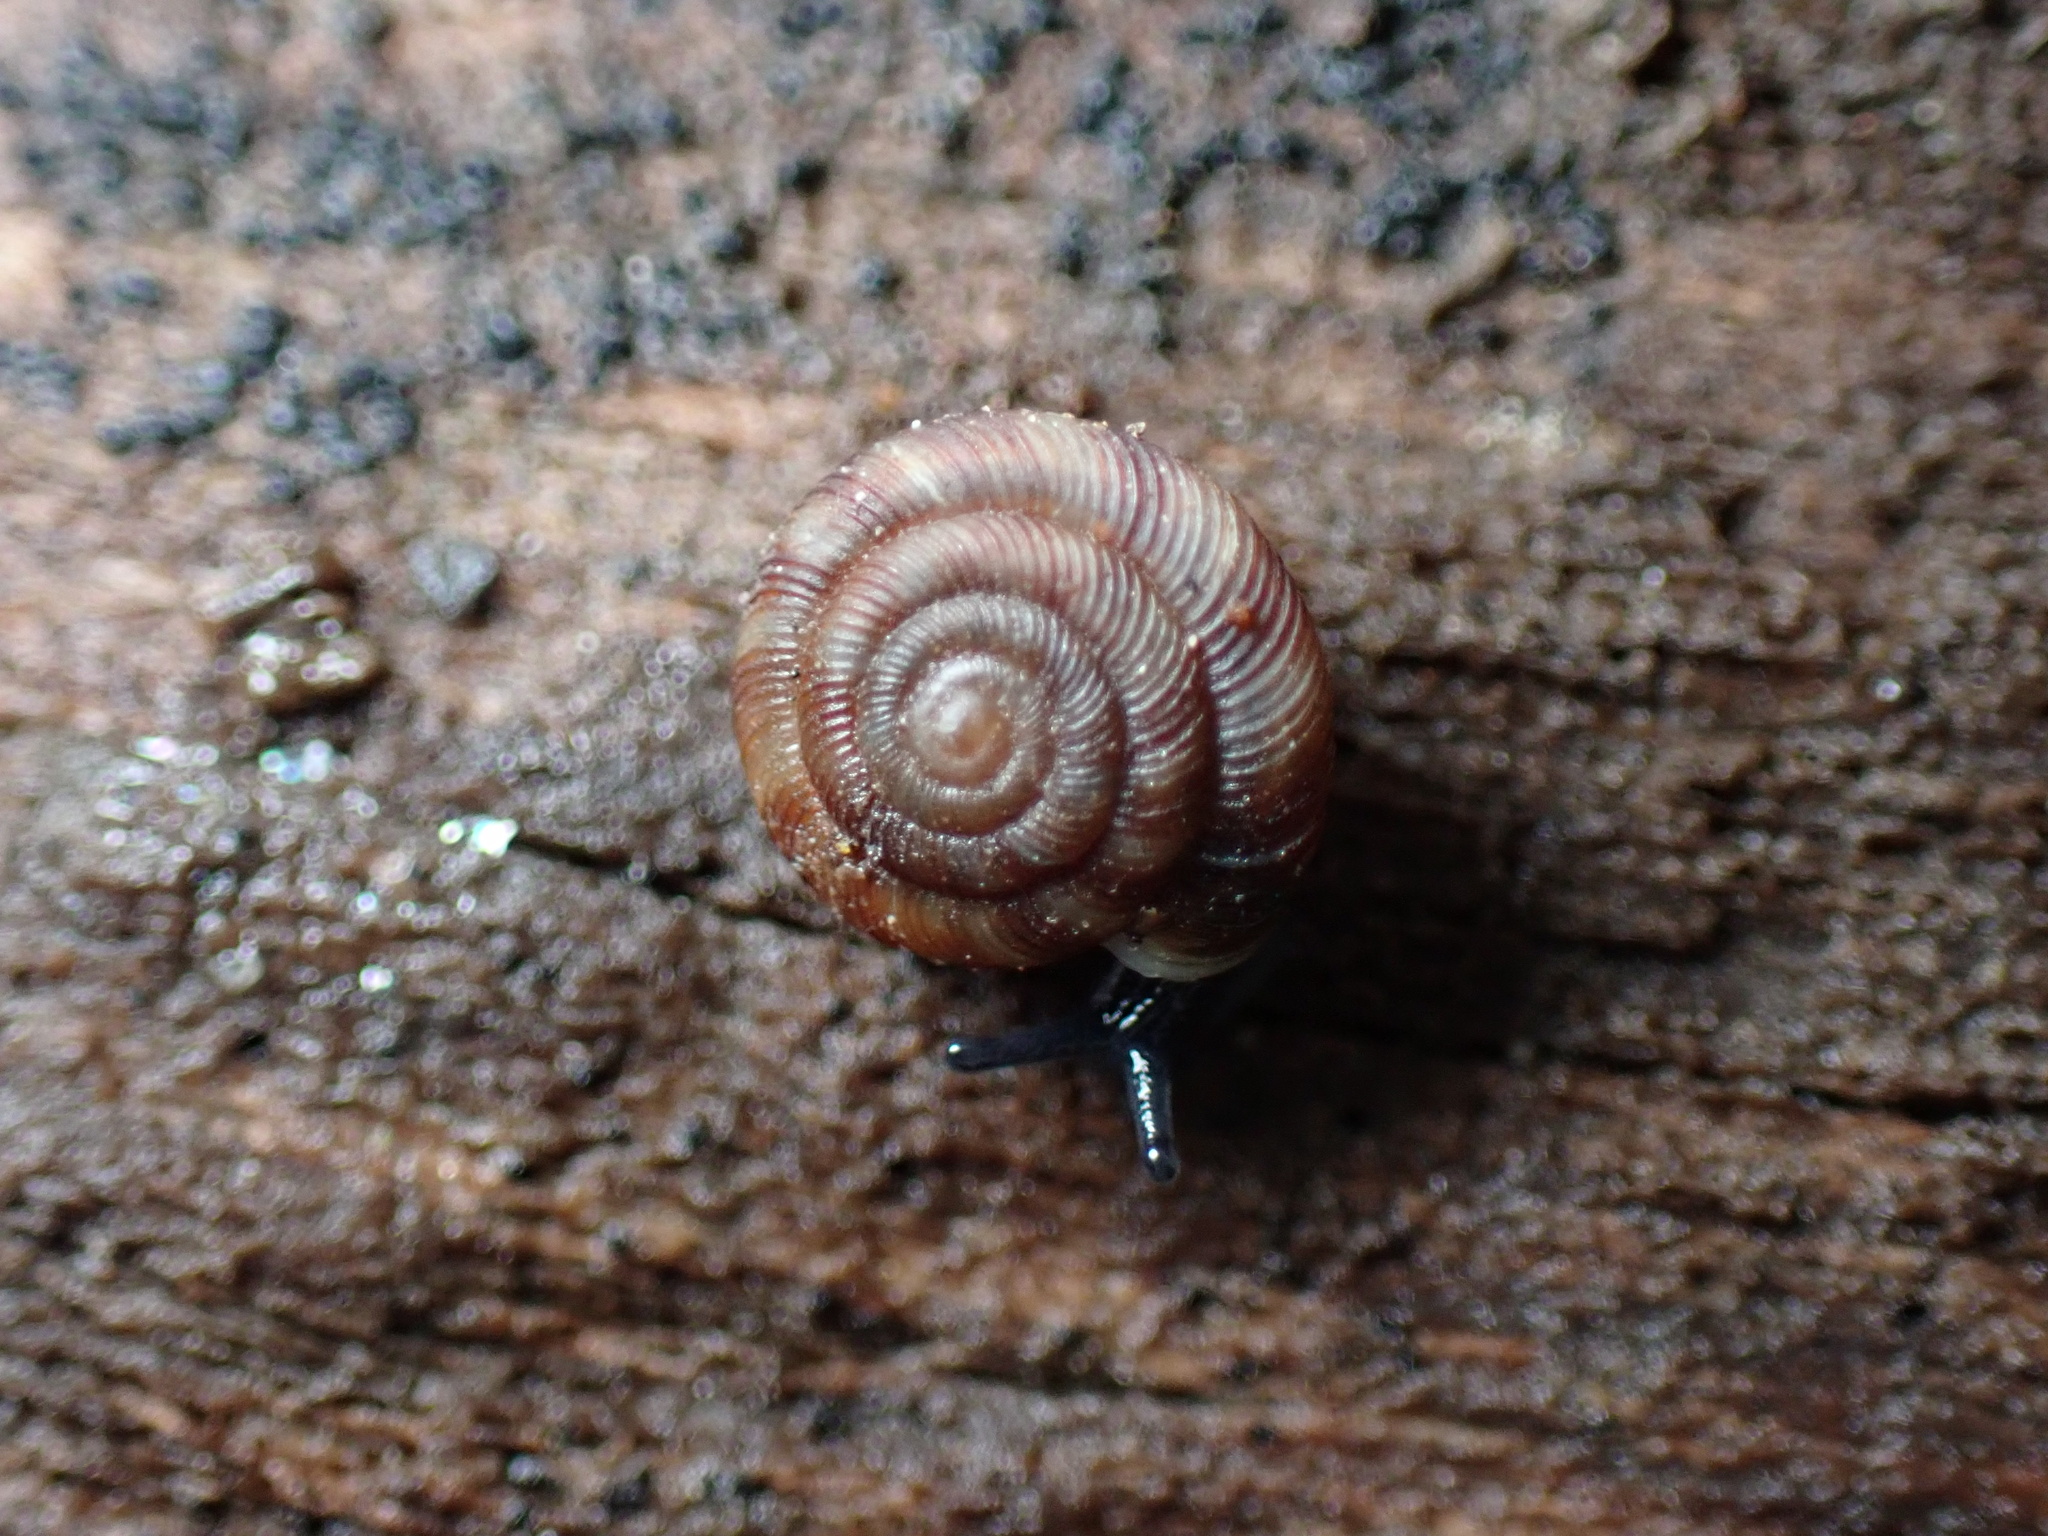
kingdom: Animalia
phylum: Mollusca
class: Gastropoda
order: Stylommatophora
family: Discidae
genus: Discus
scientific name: Discus rotundatus
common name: Rounded snail
